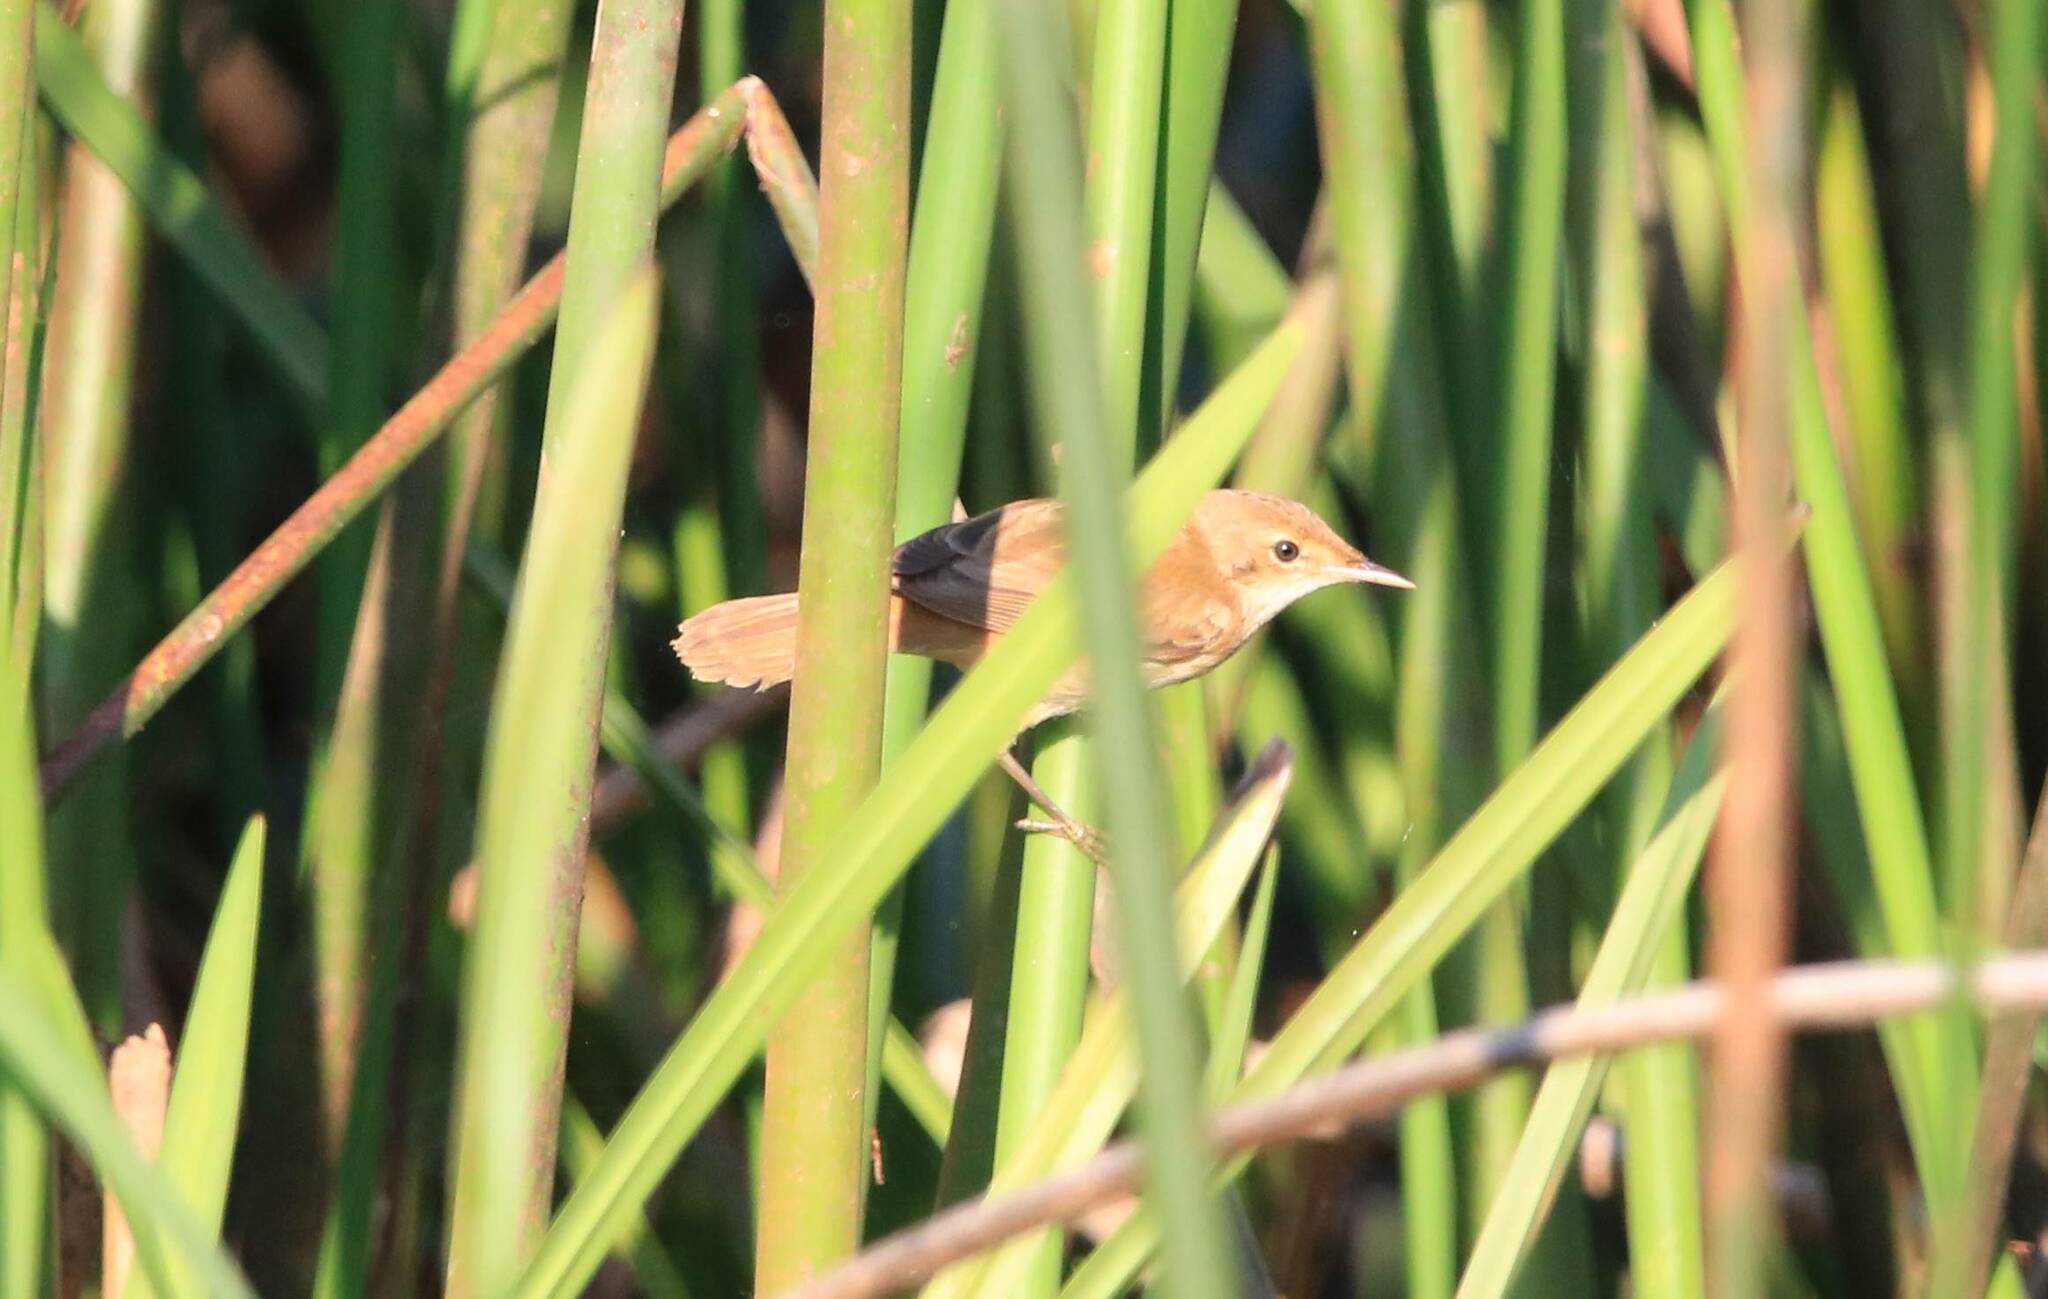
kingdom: Animalia
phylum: Chordata
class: Aves
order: Passeriformes
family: Locustellidae
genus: Locustella
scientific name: Locustella luscinioides
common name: Savi's warbler
